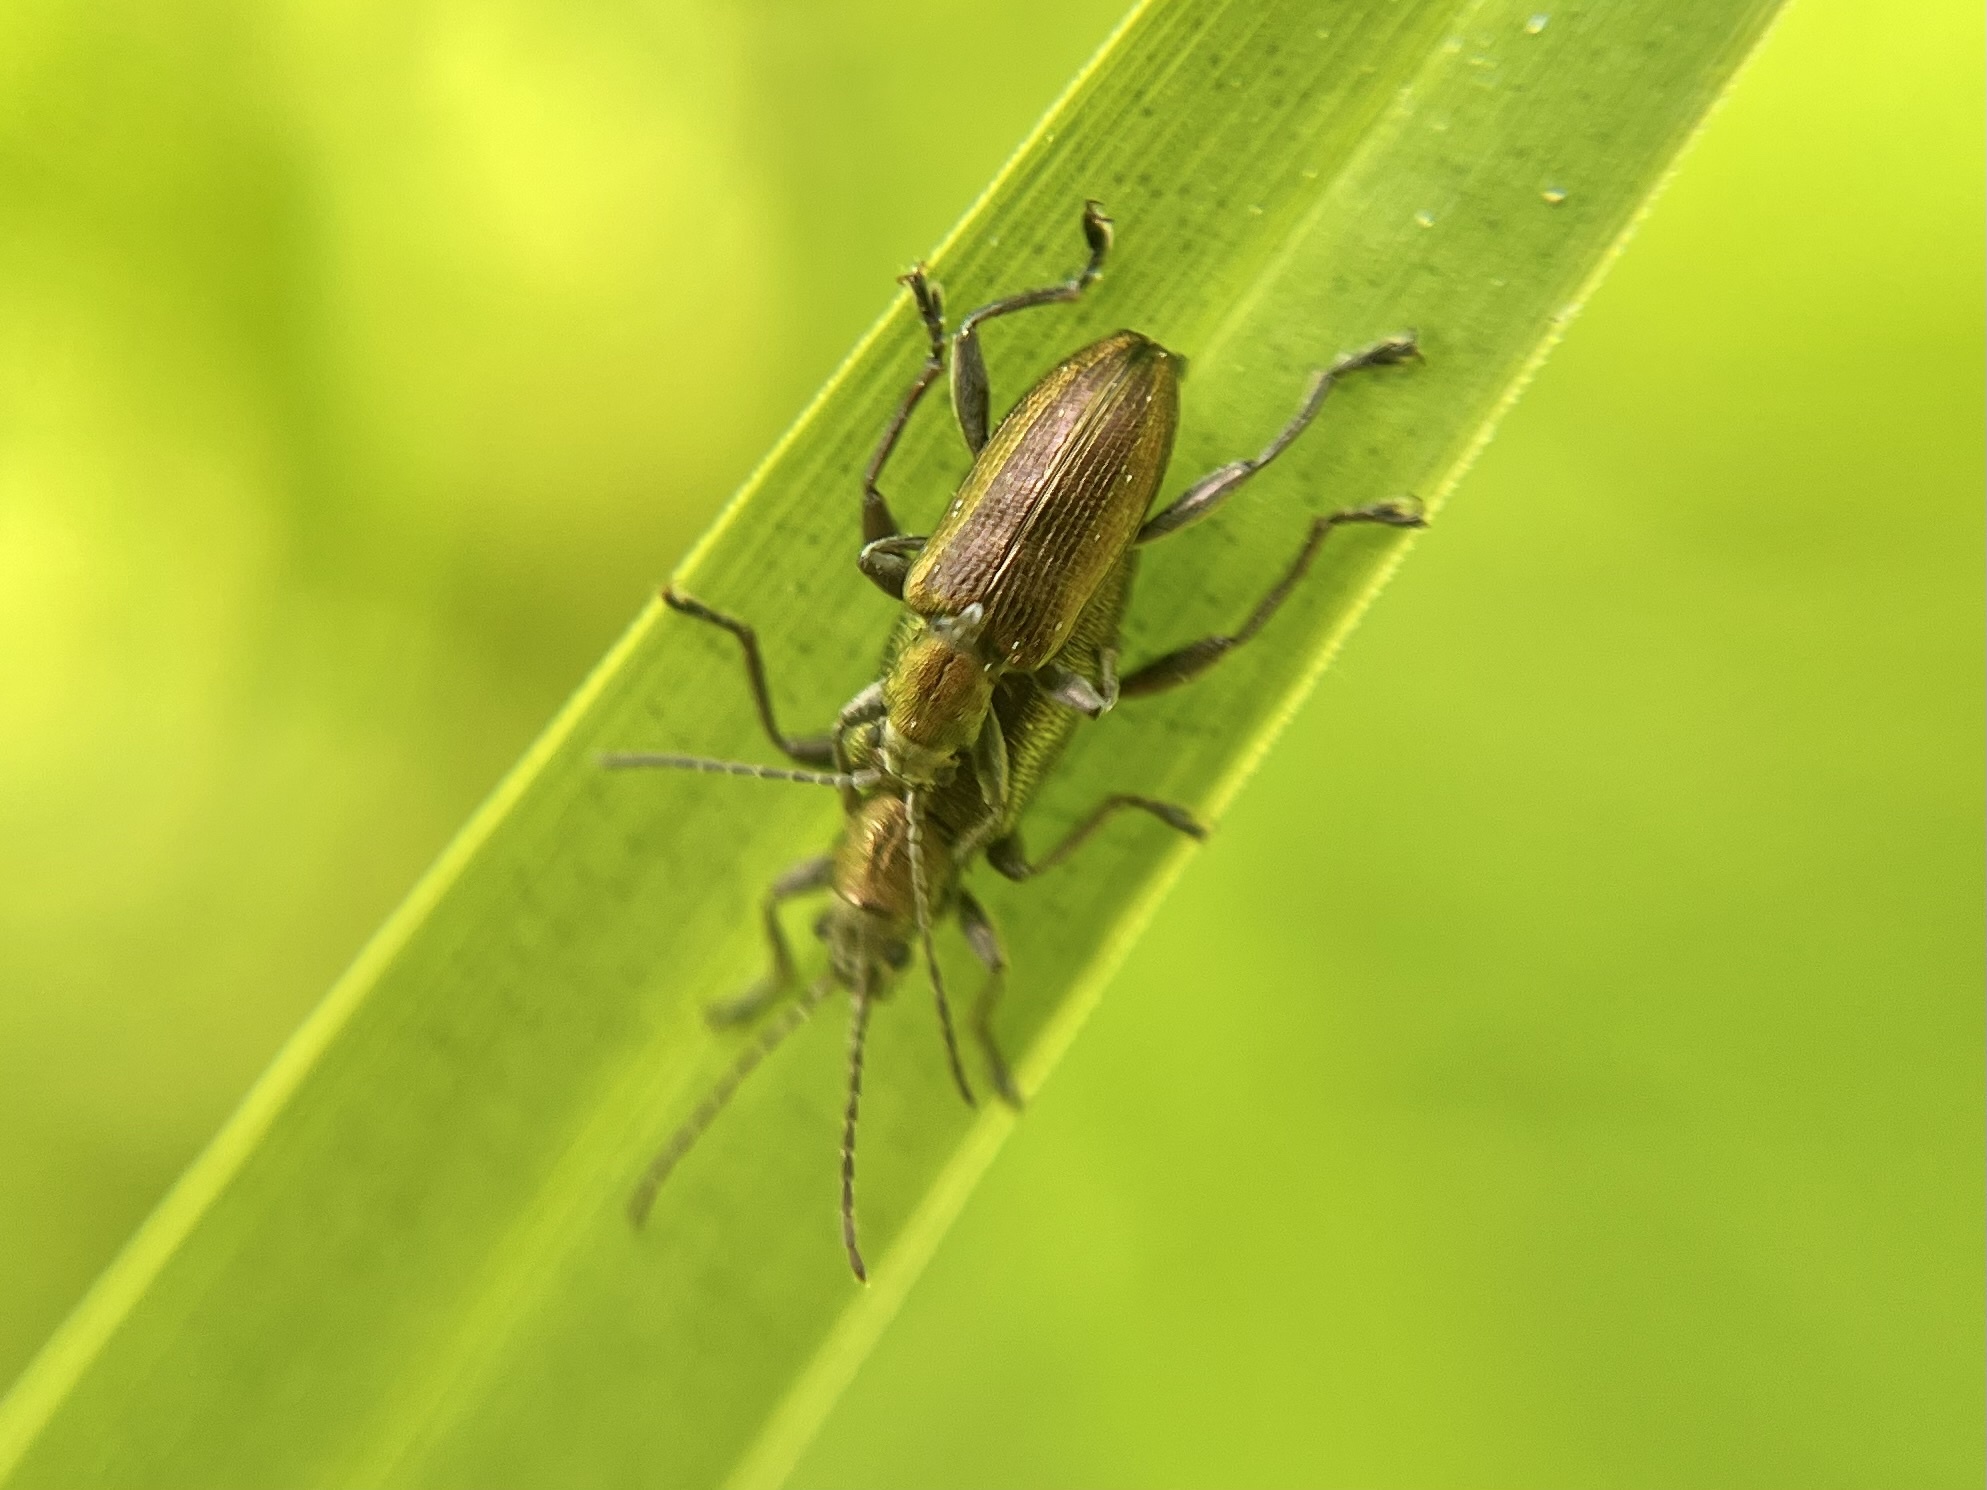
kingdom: Animalia
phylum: Arthropoda
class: Insecta
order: Coleoptera
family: Chrysomelidae
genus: Donacia
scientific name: Donacia semicuprea
